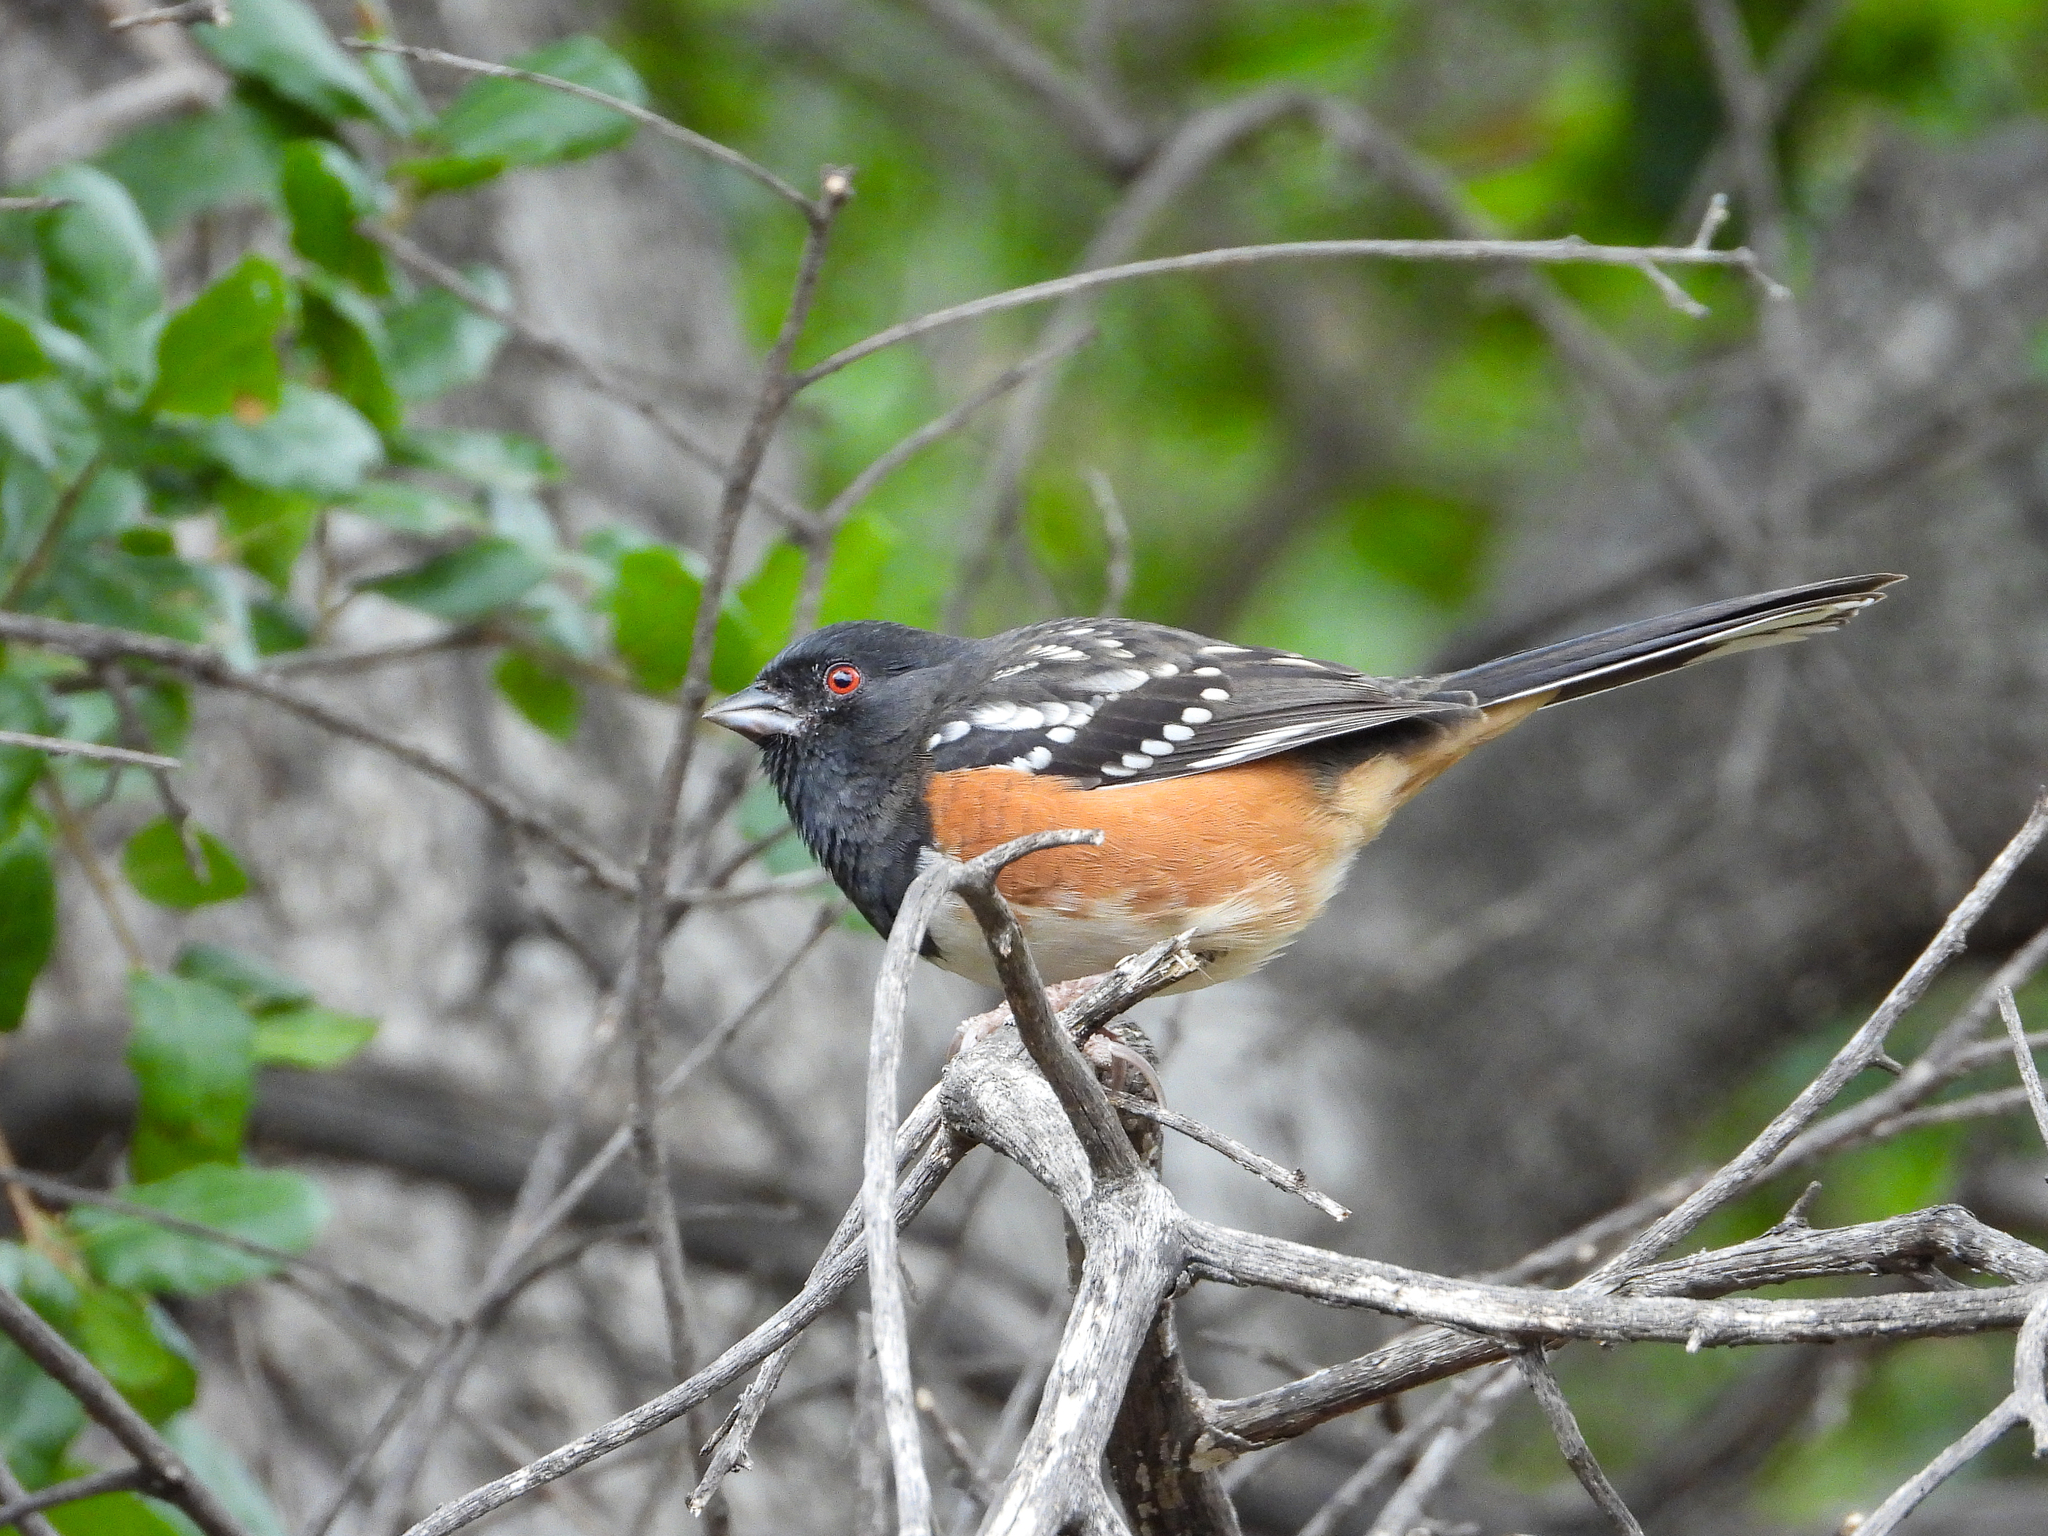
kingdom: Animalia
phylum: Chordata
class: Aves
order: Passeriformes
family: Passerellidae
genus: Pipilo
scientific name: Pipilo maculatus
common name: Spotted towhee
